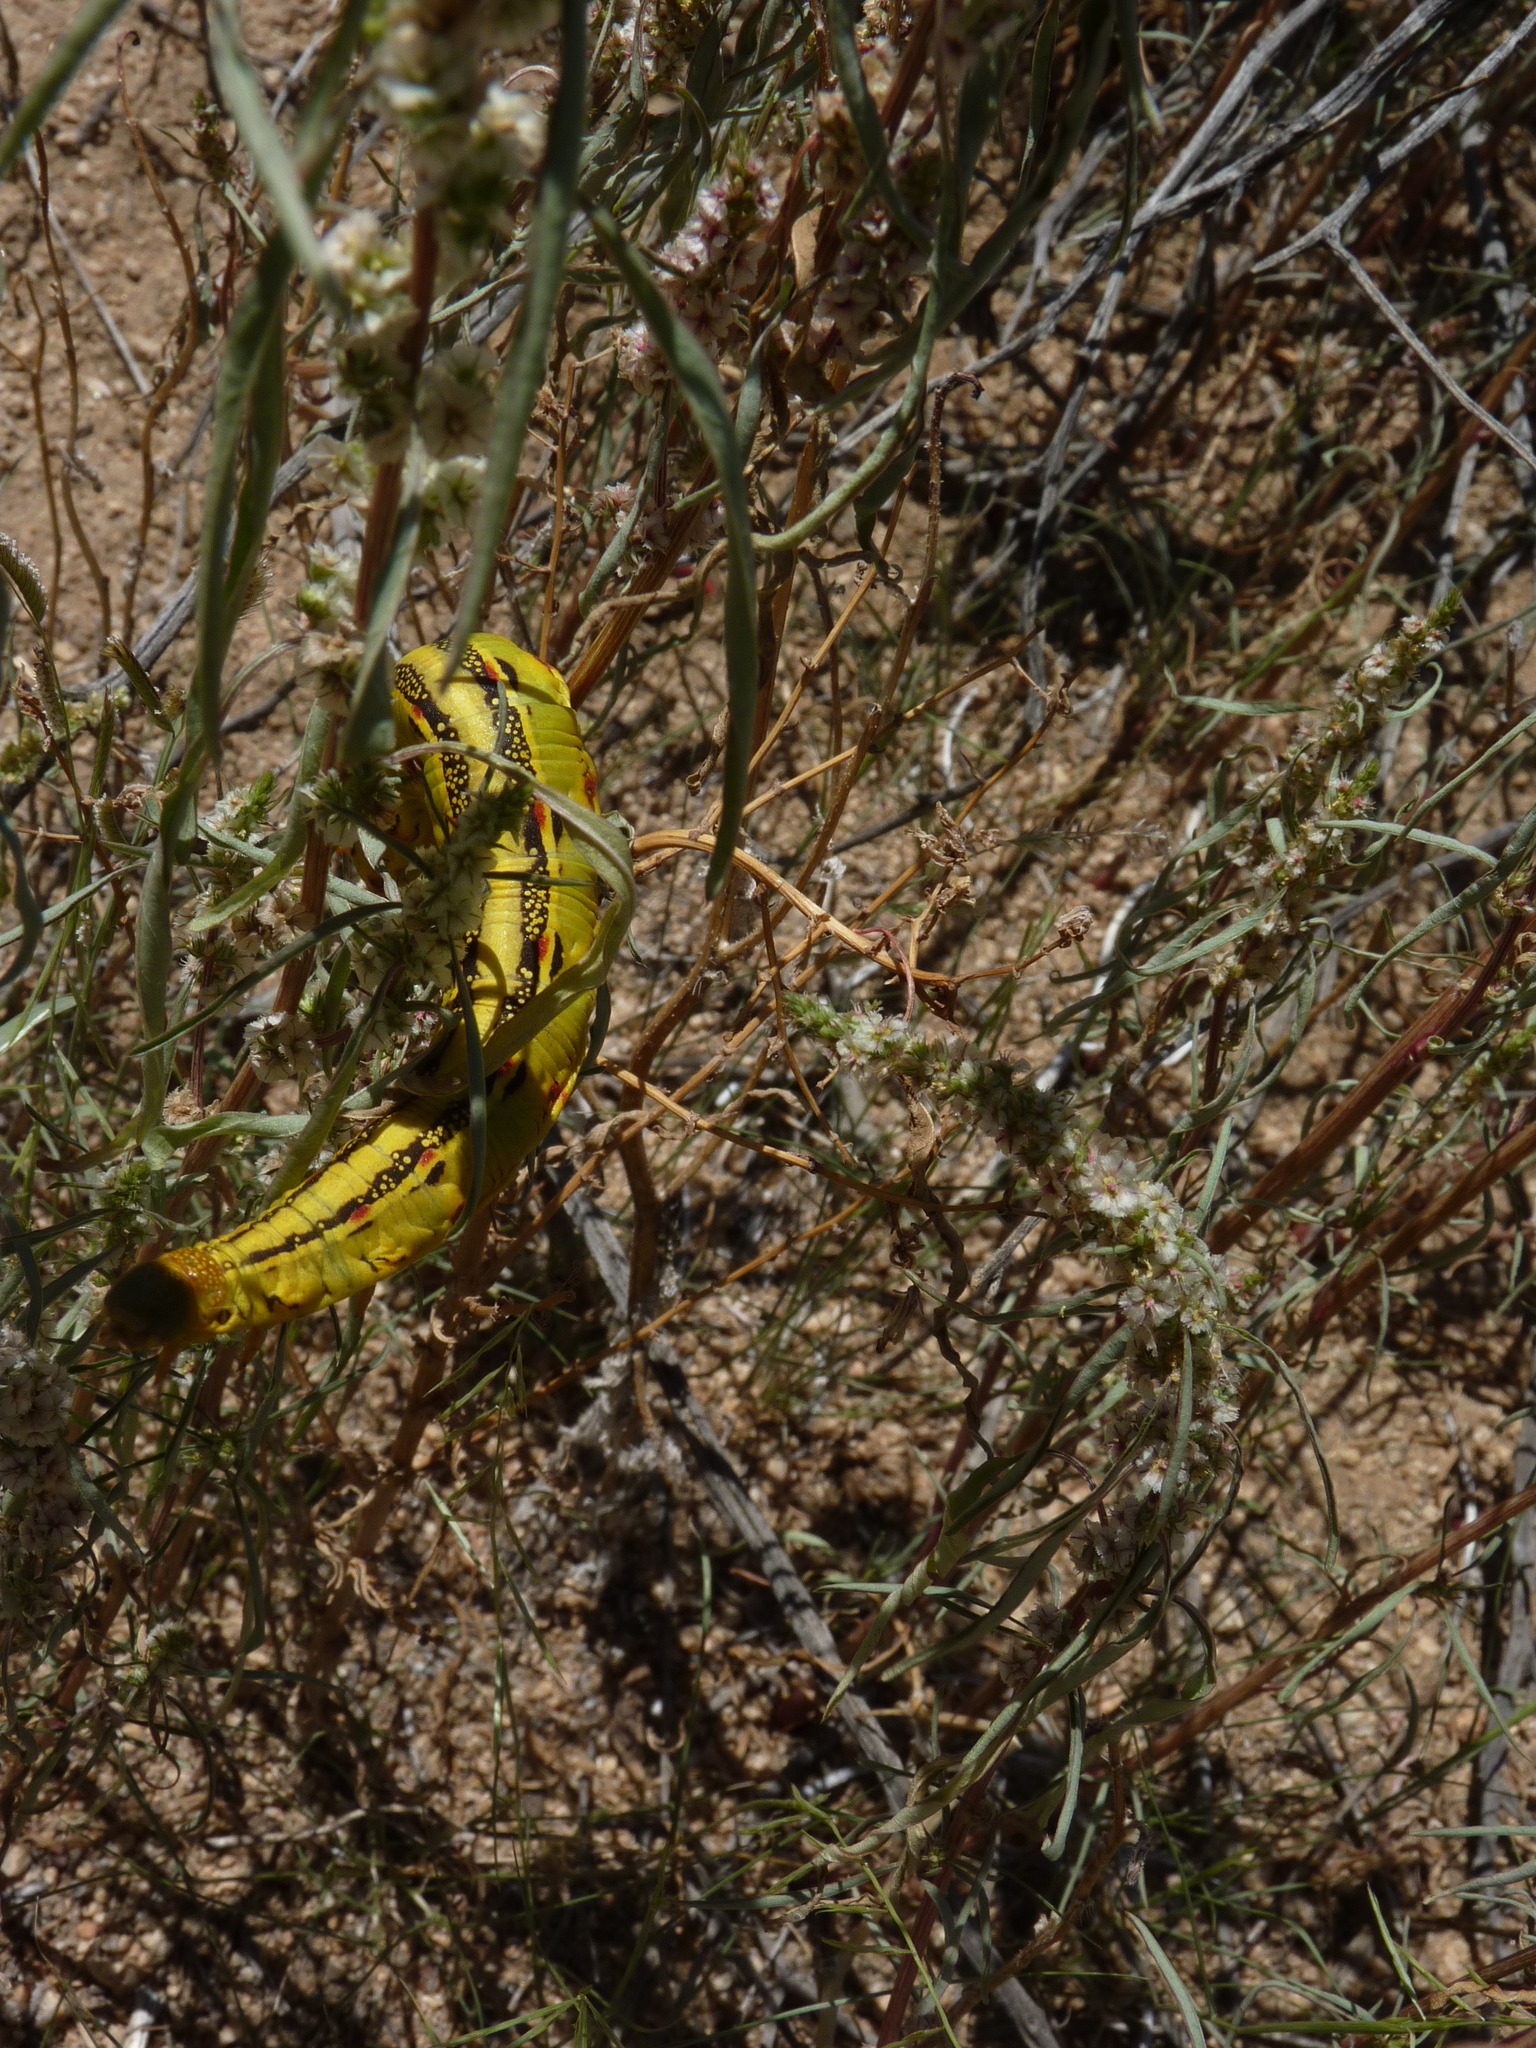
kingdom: Animalia
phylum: Arthropoda
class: Insecta
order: Lepidoptera
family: Sphingidae
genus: Hyles
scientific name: Hyles lineata
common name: White-lined sphinx
